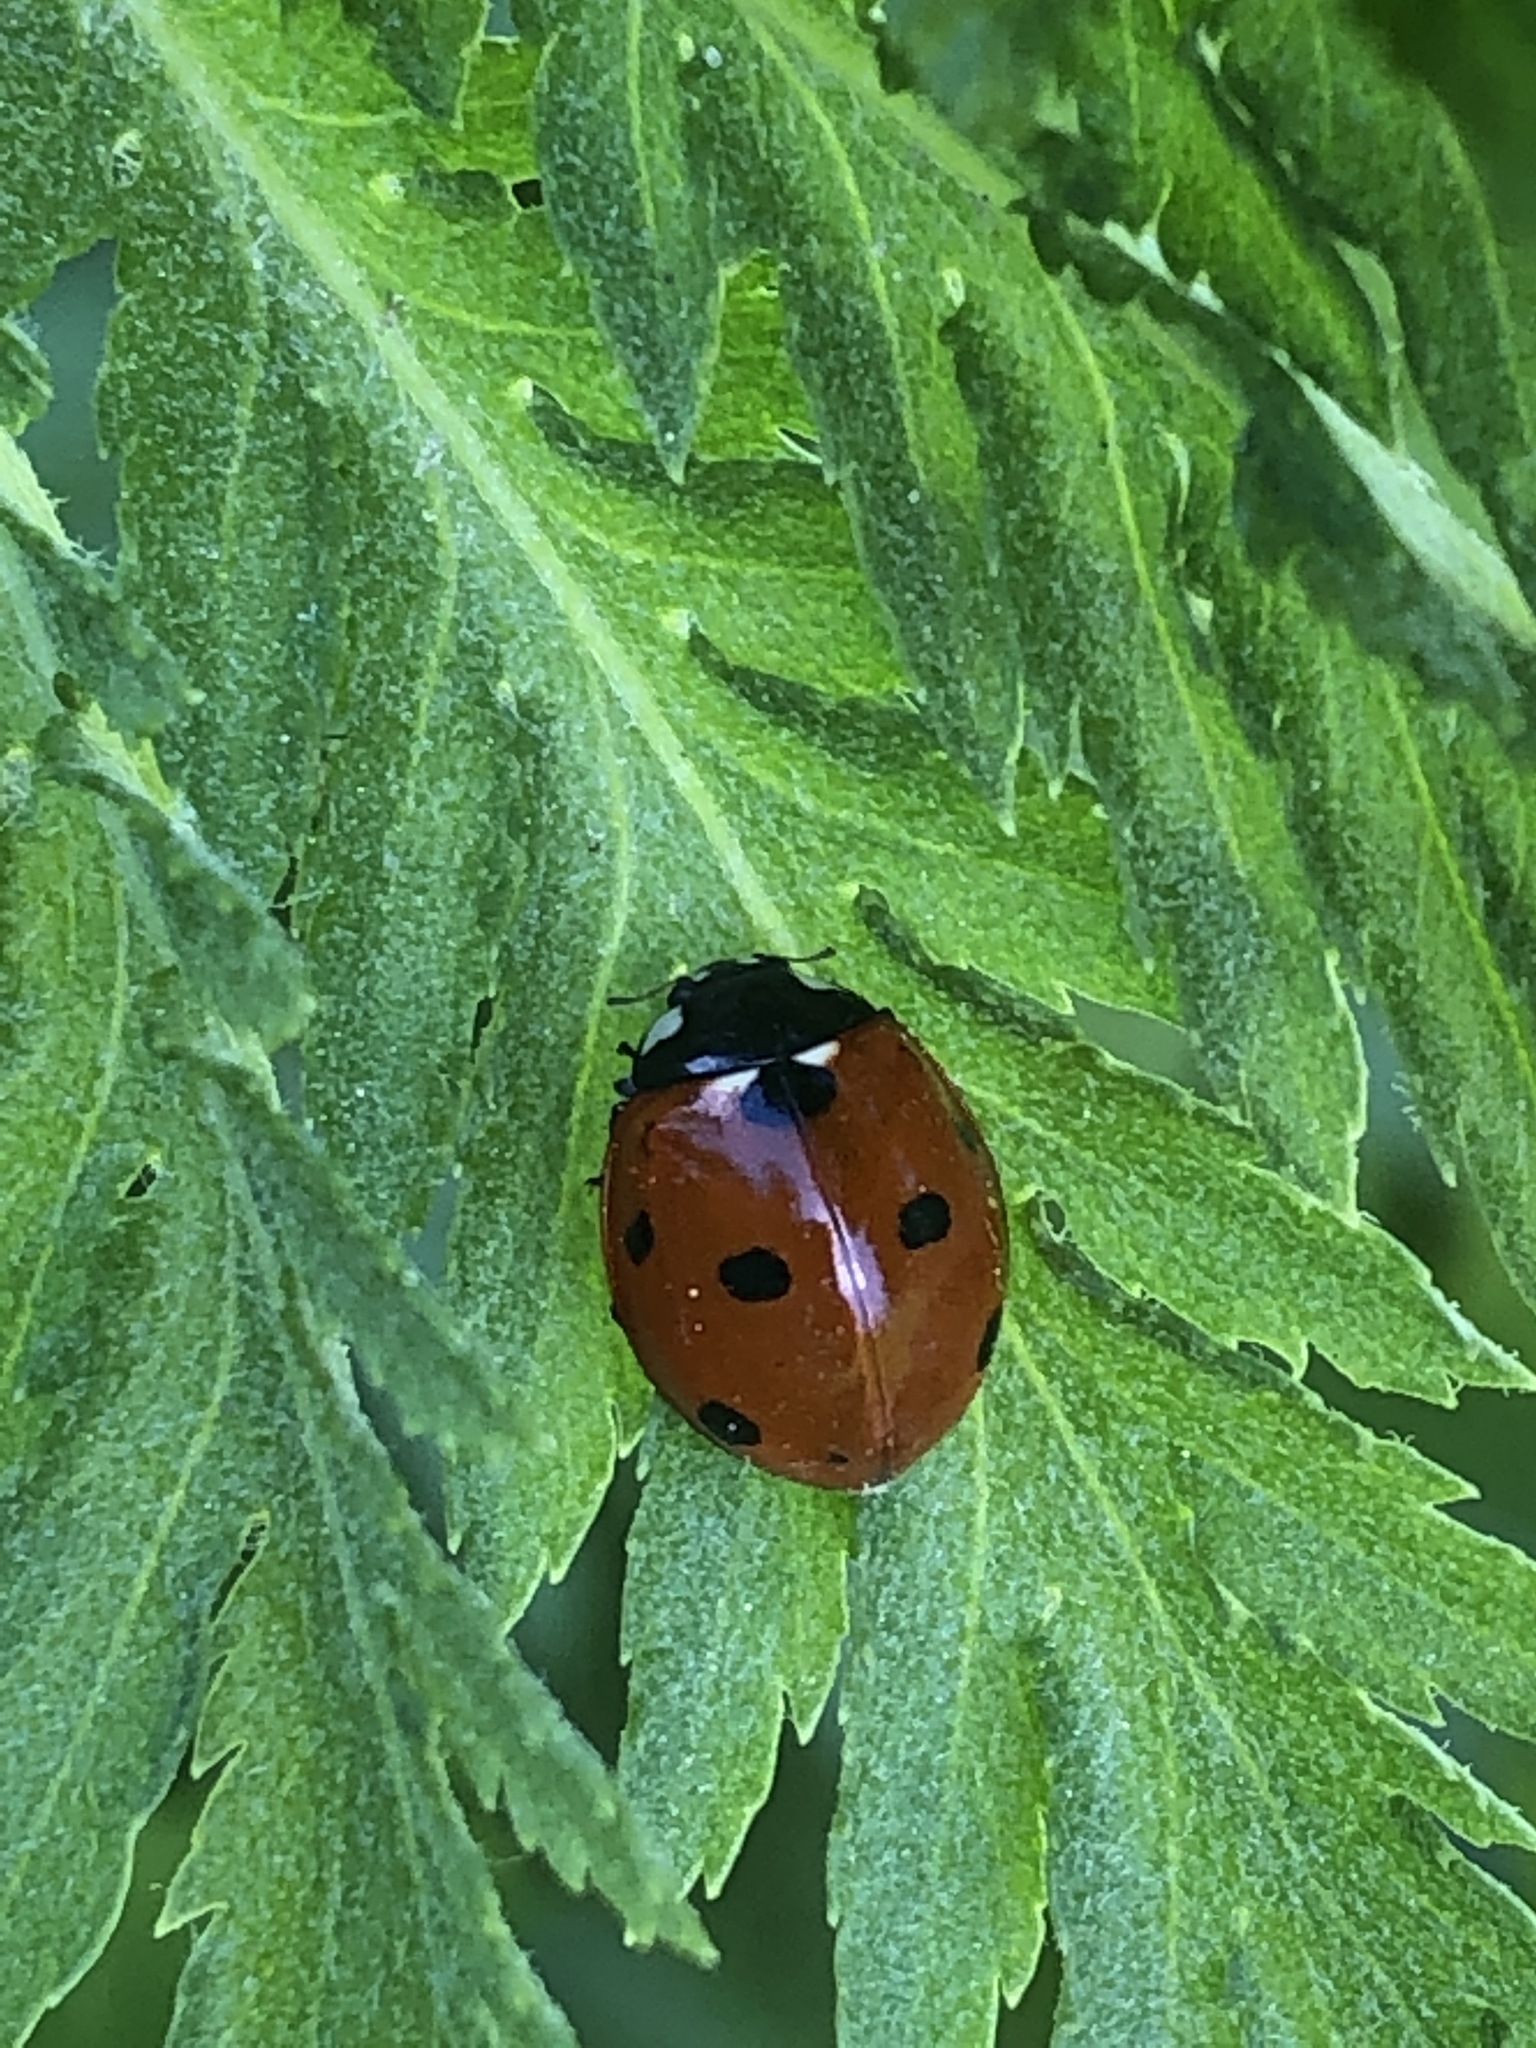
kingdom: Animalia
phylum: Arthropoda
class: Insecta
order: Coleoptera
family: Coccinellidae
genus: Coccinella
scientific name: Coccinella septempunctata
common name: Sevenspotted lady beetle
